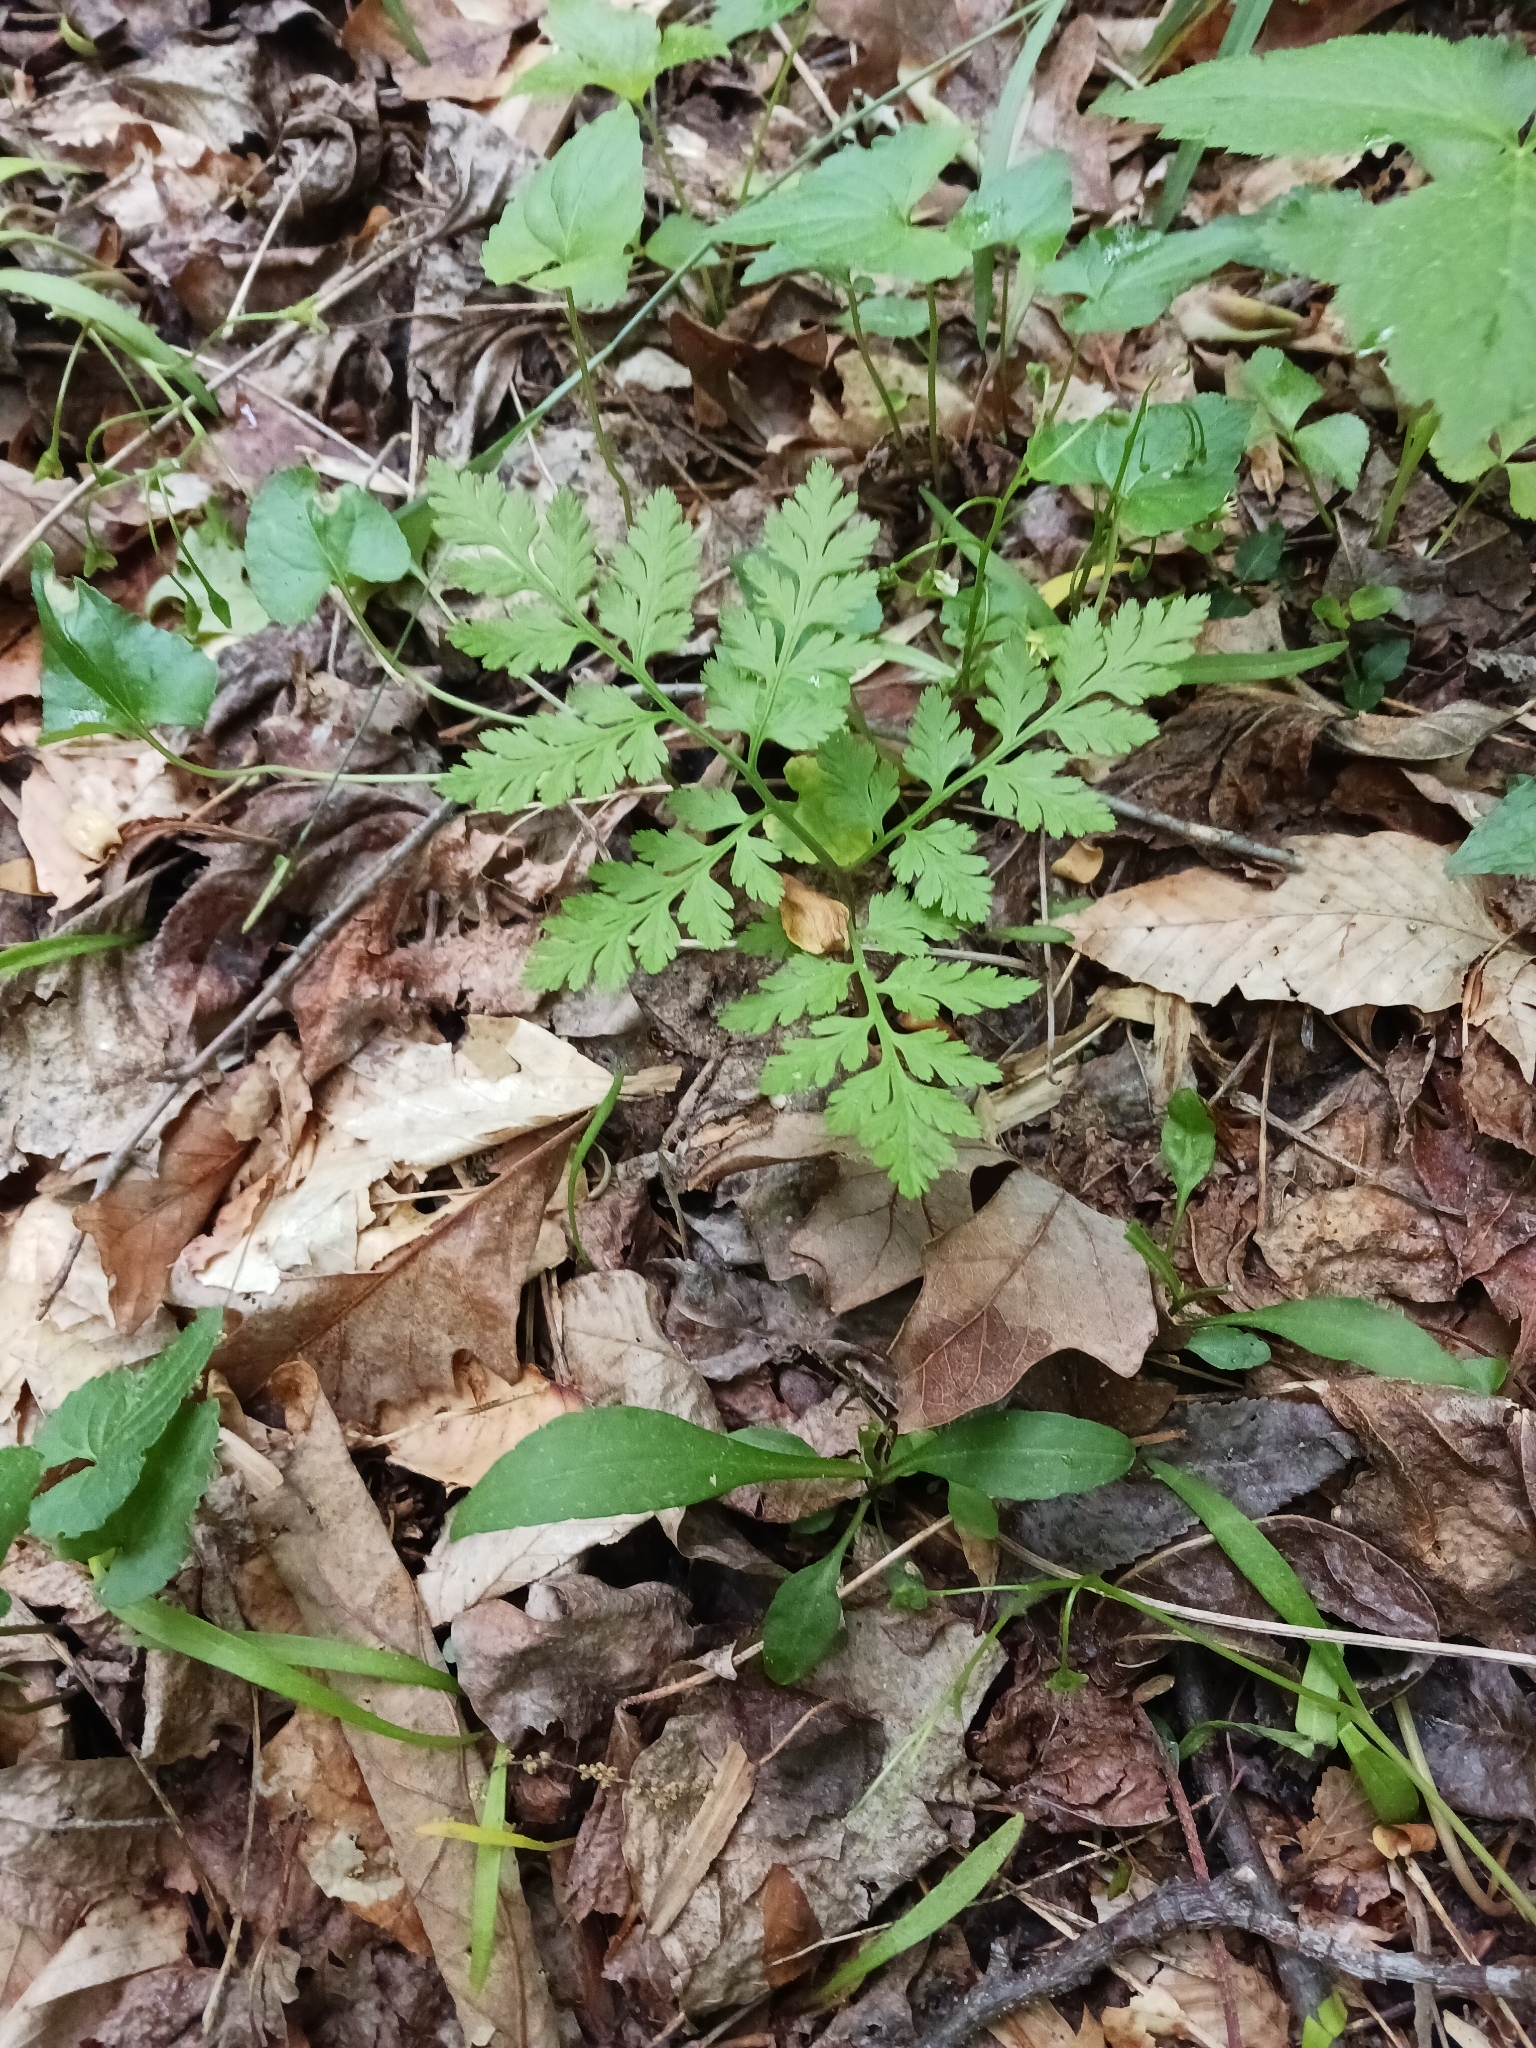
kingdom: Plantae
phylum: Tracheophyta
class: Polypodiopsida
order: Ophioglossales
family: Ophioglossaceae
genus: Botrypus
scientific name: Botrypus virginianus
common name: Common grapefern
